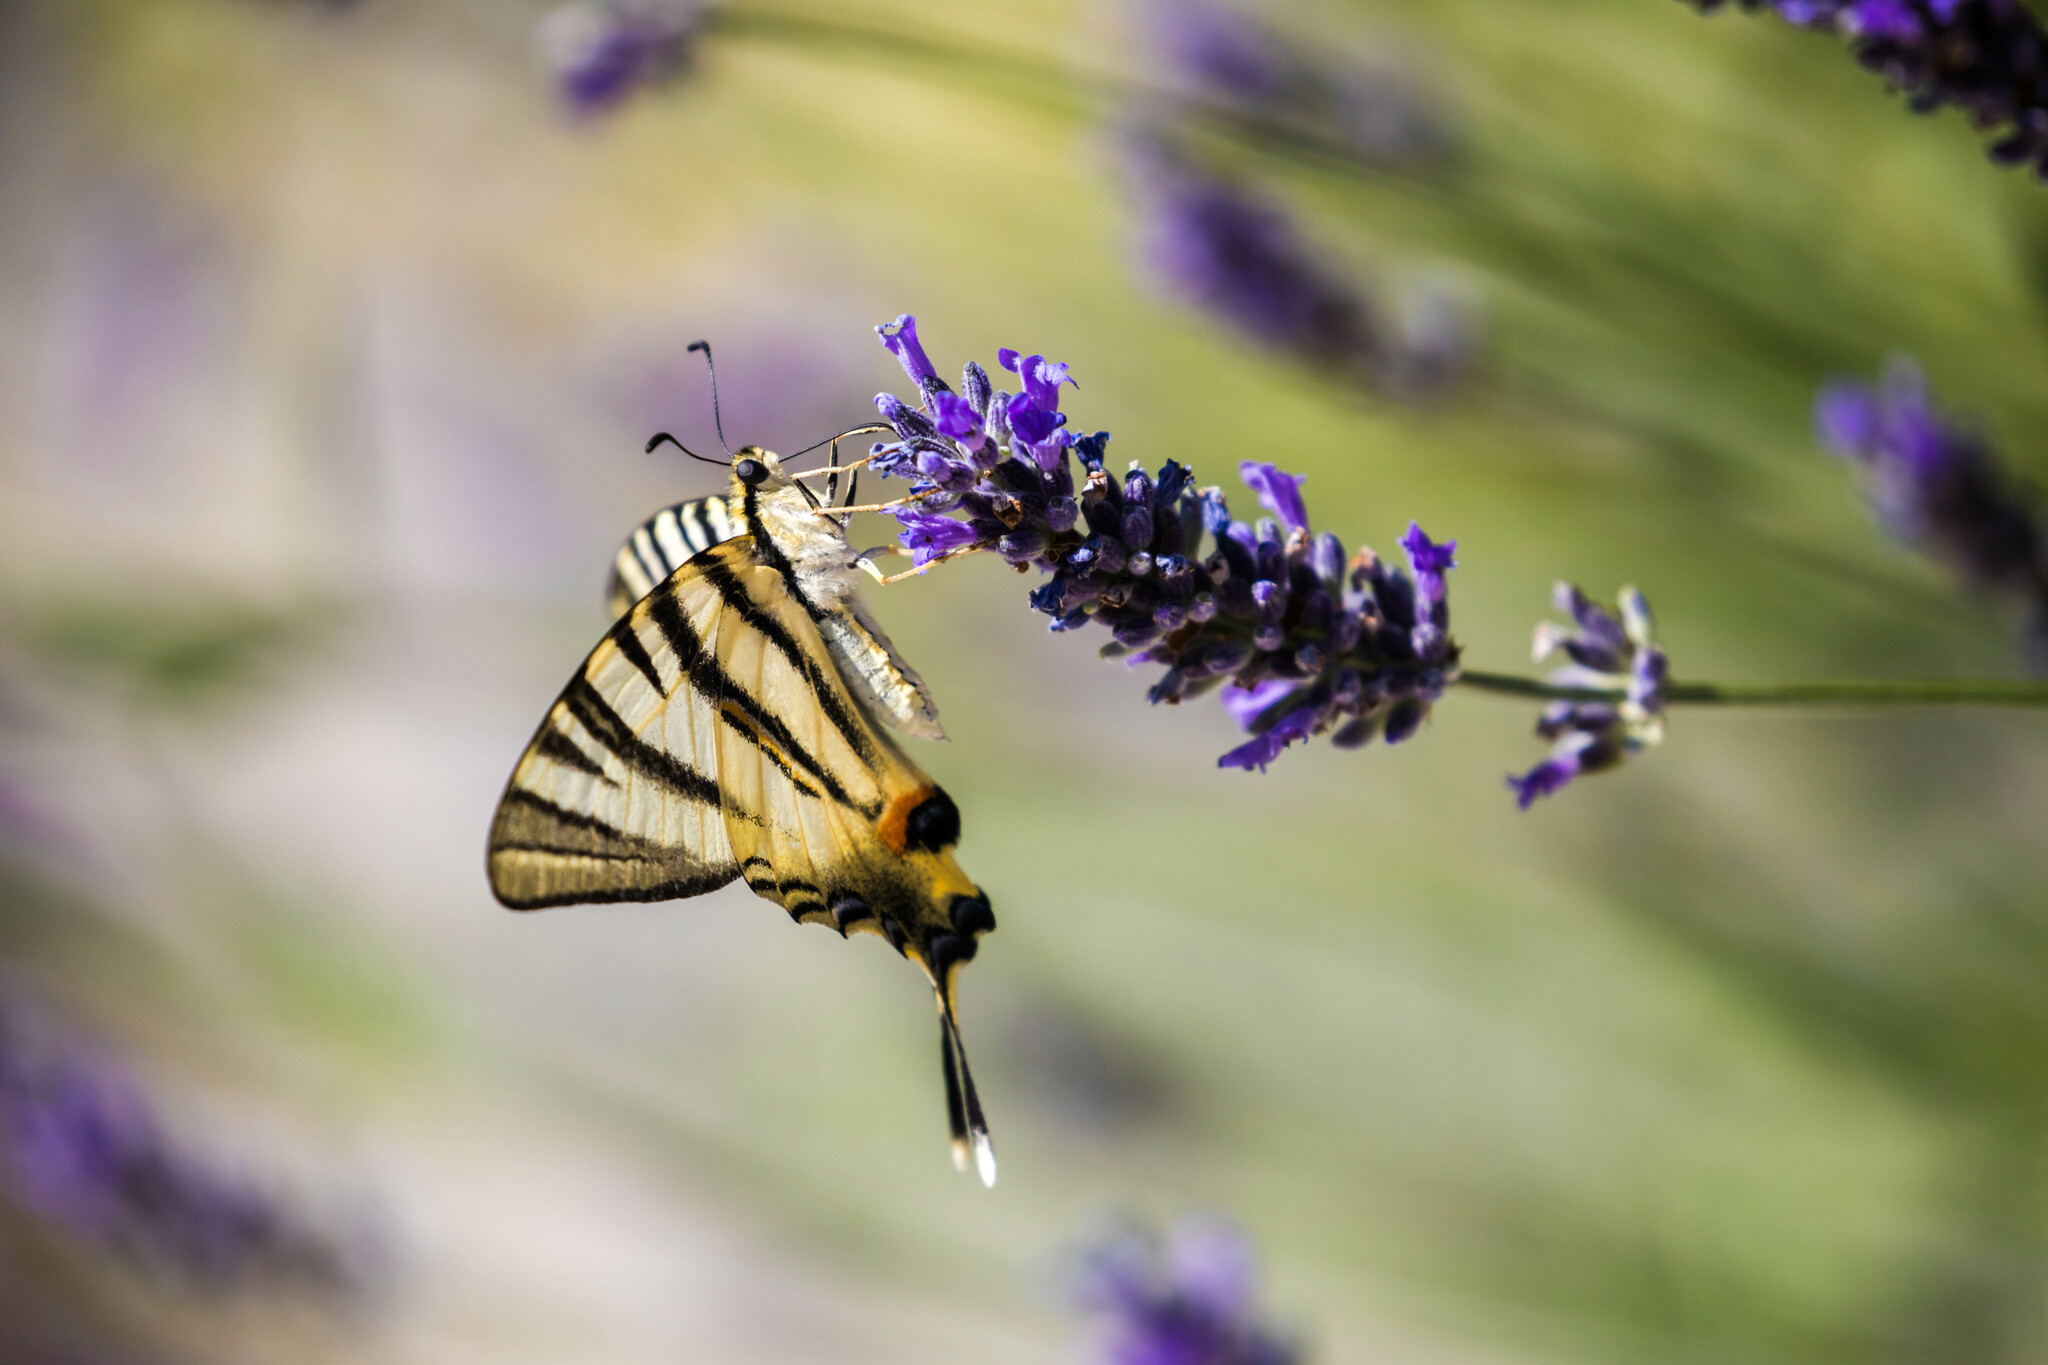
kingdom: Animalia
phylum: Arthropoda
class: Insecta
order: Lepidoptera
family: Papilionidae
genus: Iphiclides
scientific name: Iphiclides podalirius
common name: Scarce swallowtail
